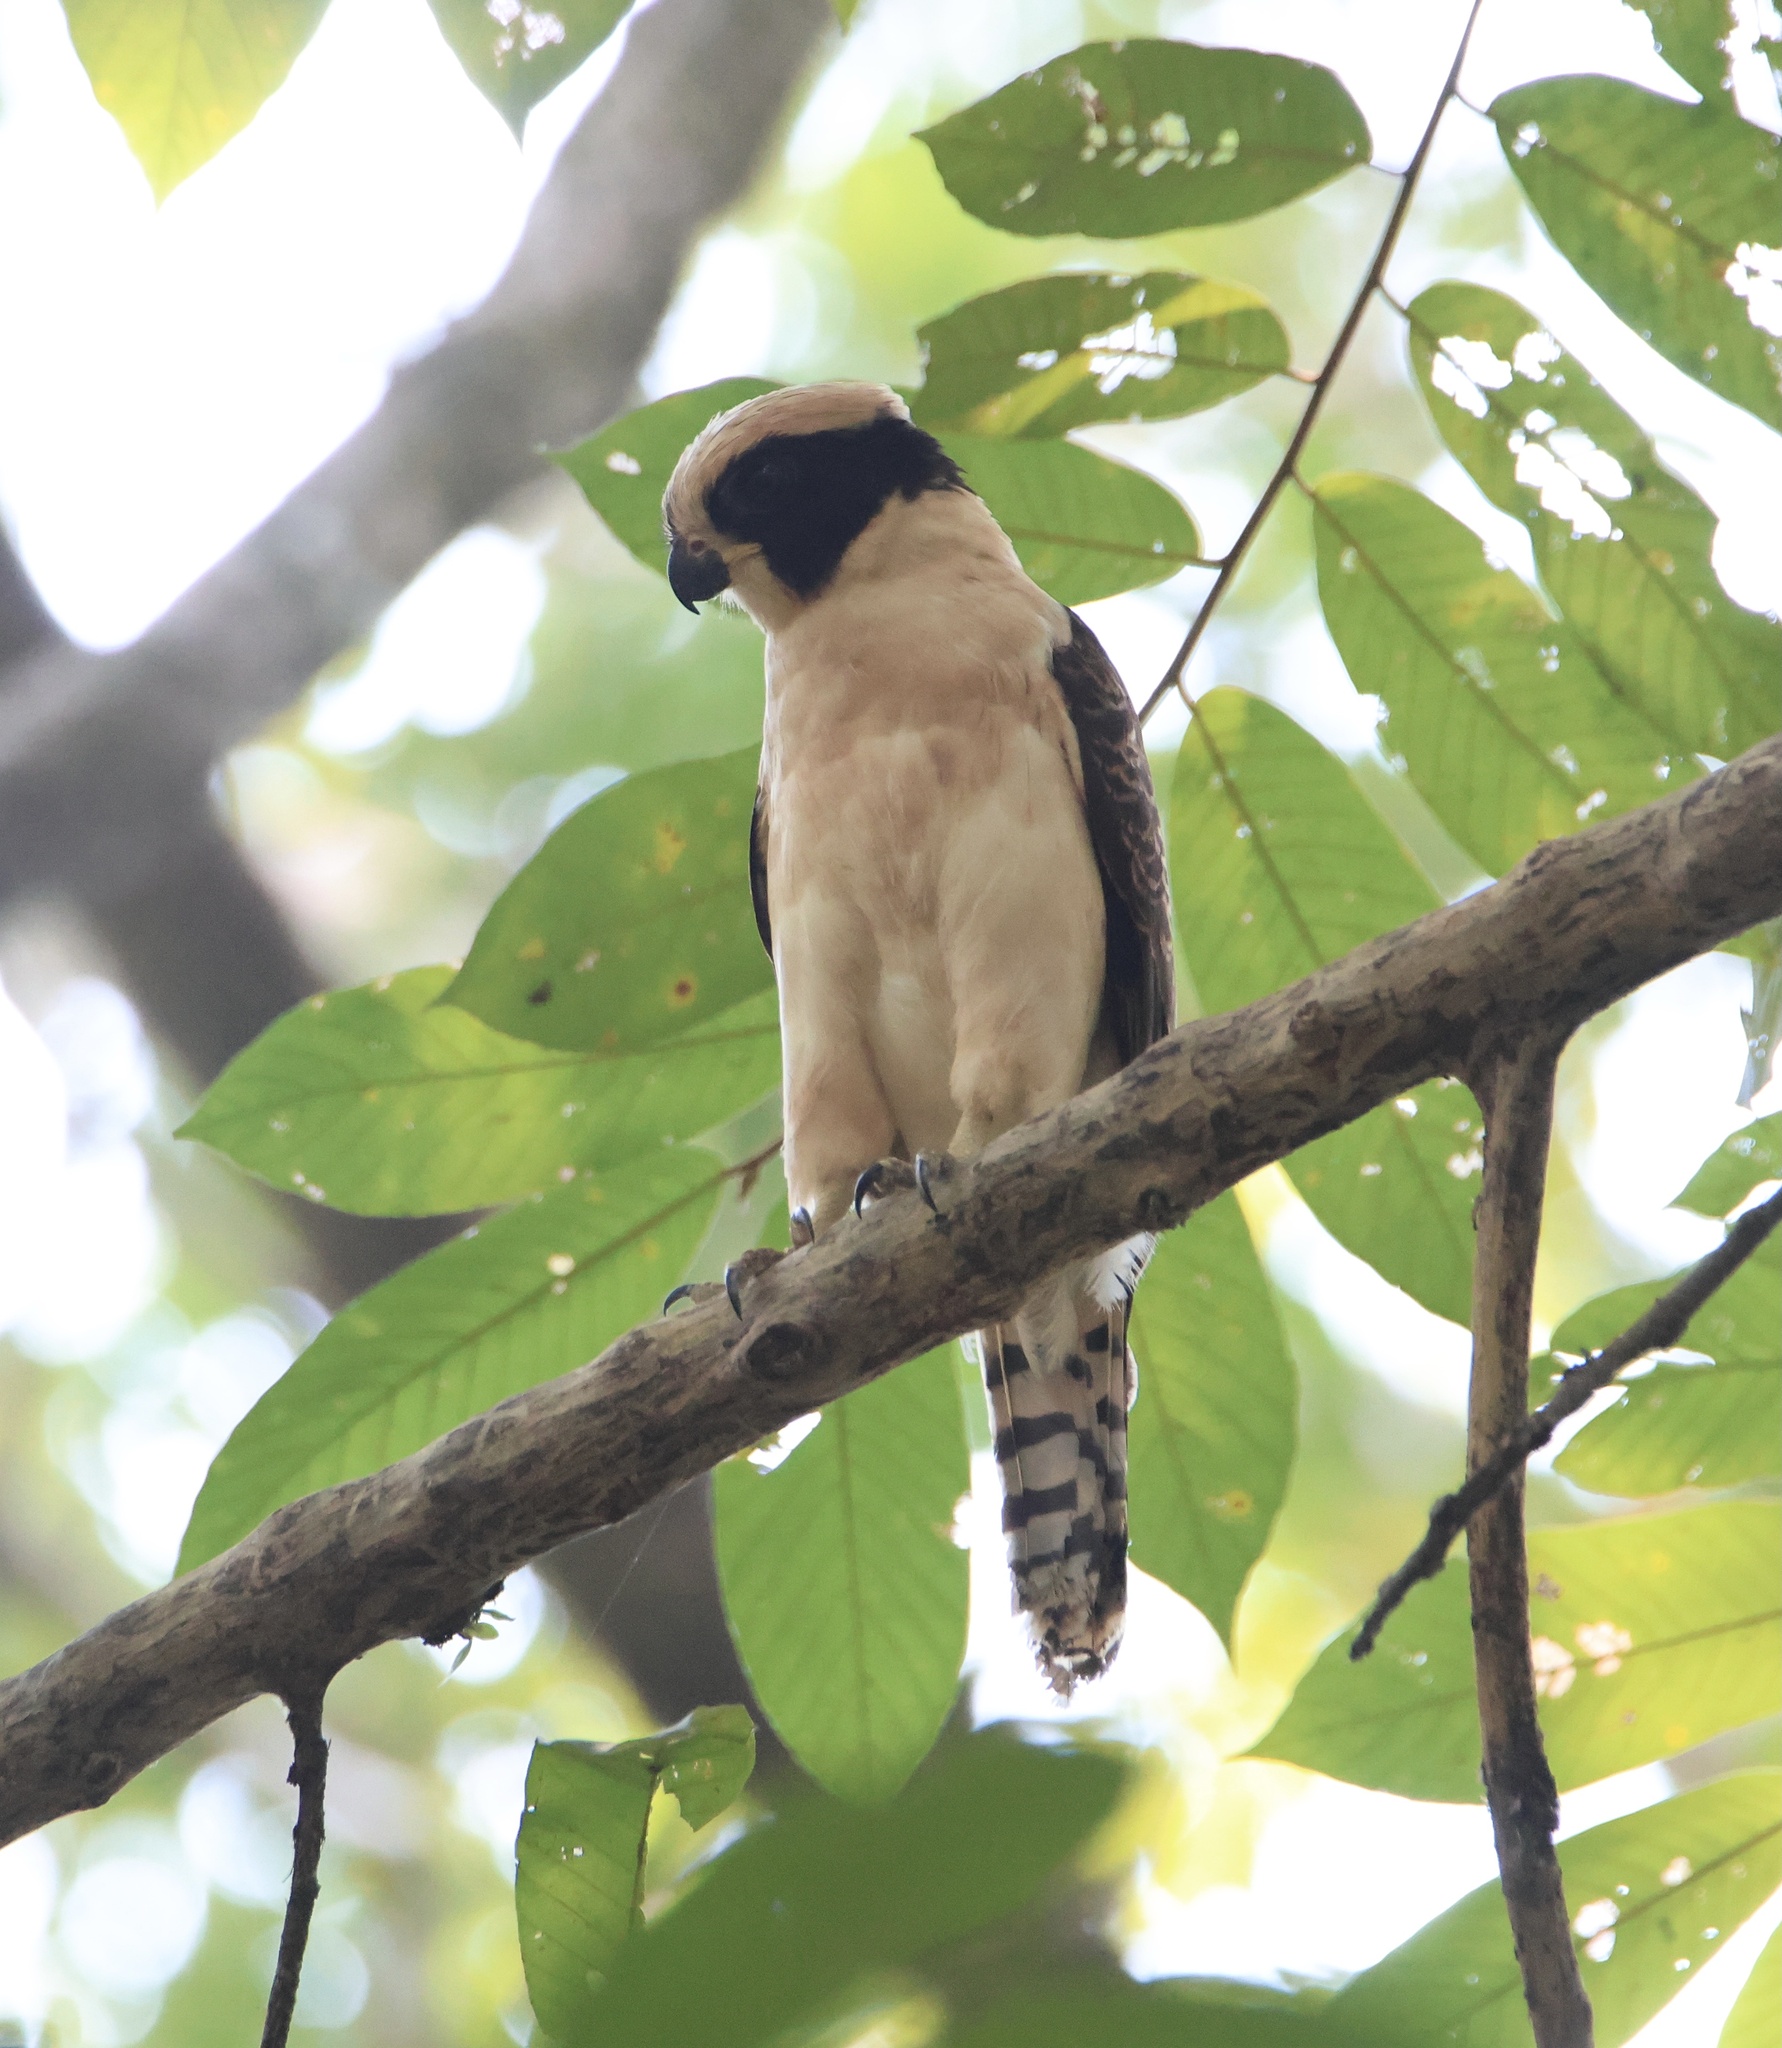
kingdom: Animalia
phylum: Chordata
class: Aves
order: Falconiformes
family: Falconidae
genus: Herpetotheres
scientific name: Herpetotheres cachinnans
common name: Laughing falcon
